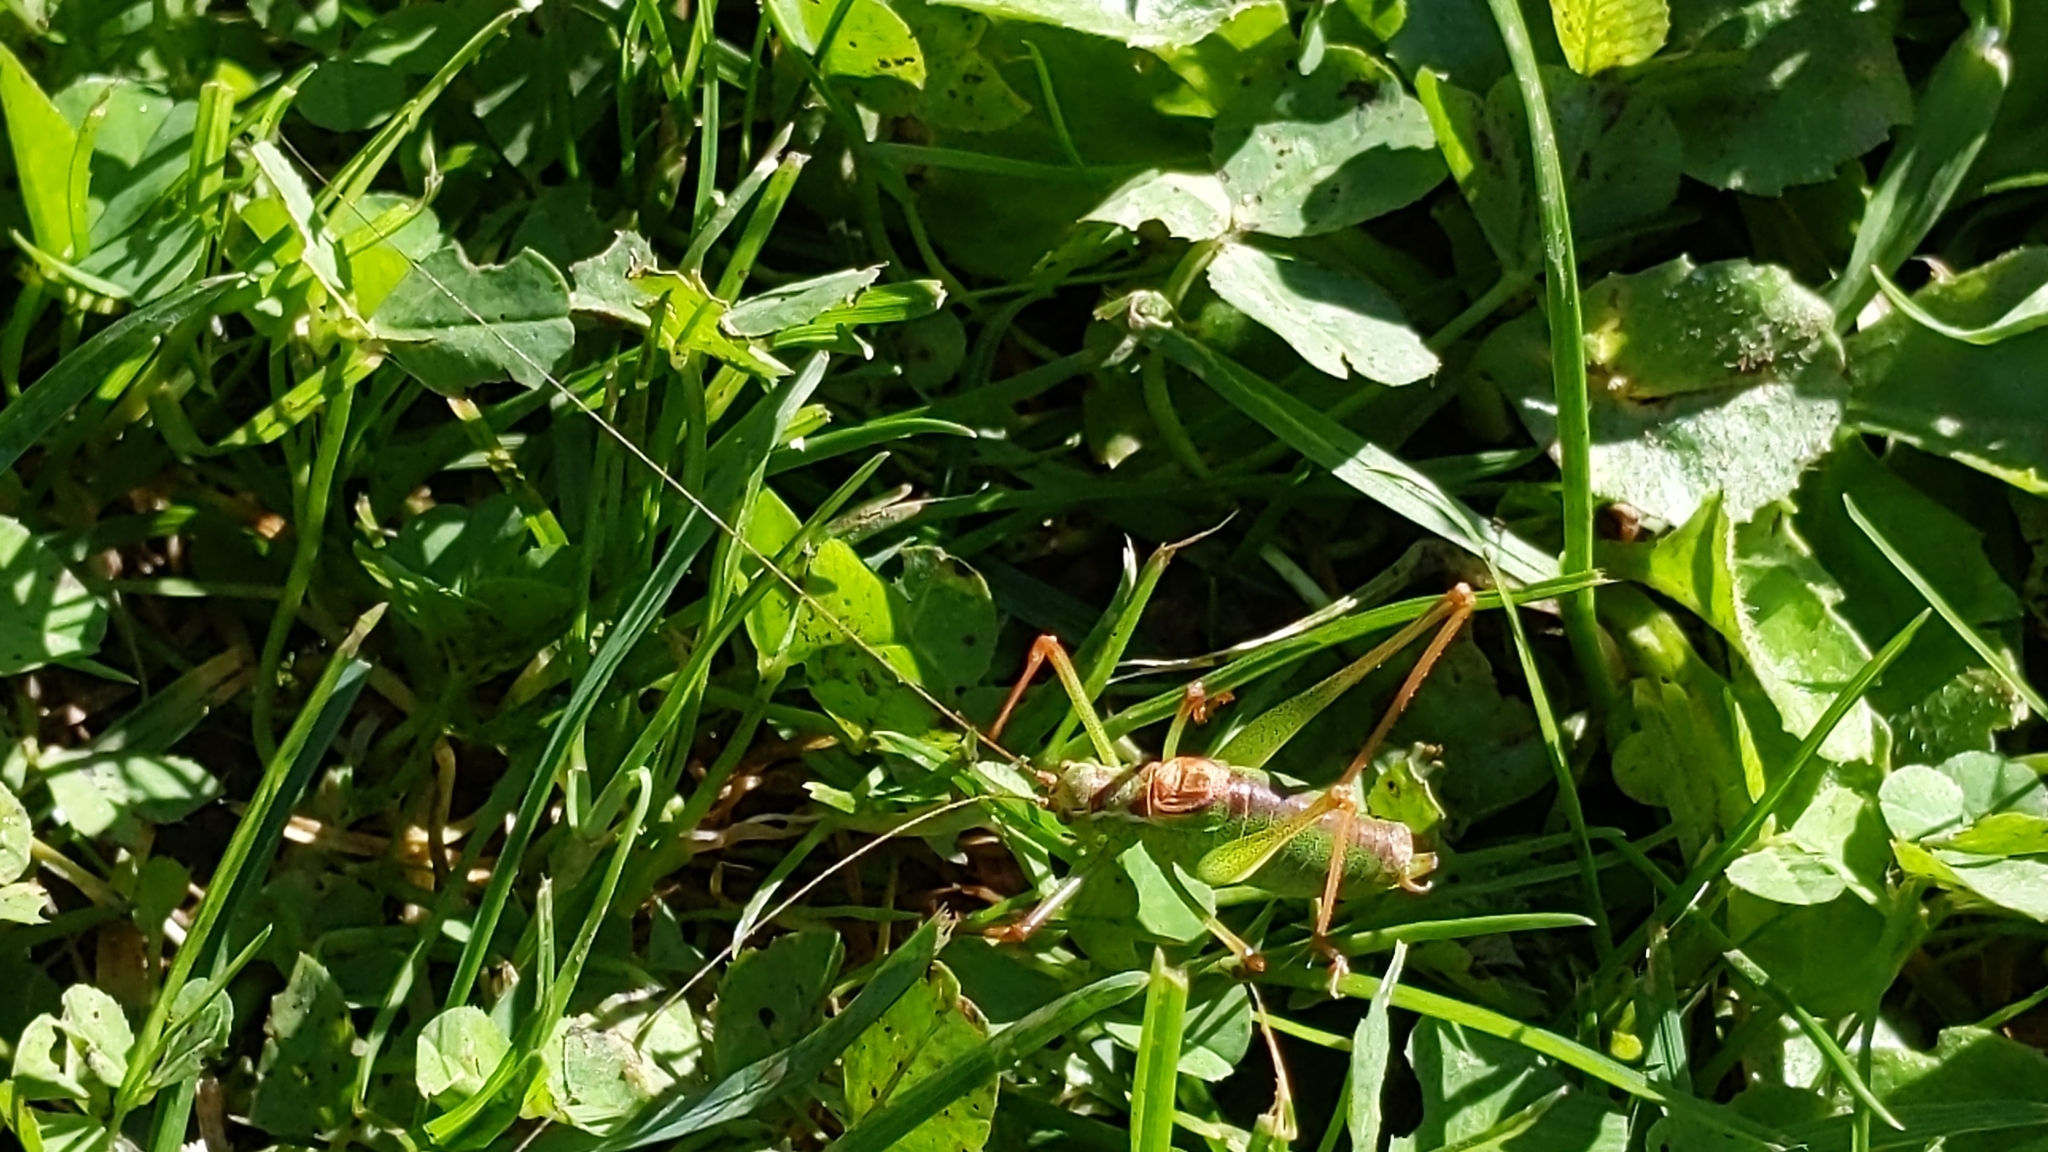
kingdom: Animalia
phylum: Arthropoda
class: Insecta
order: Orthoptera
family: Tettigoniidae
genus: Leptophyes
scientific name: Leptophyes punctatissima
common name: Speckled bush-cricket
